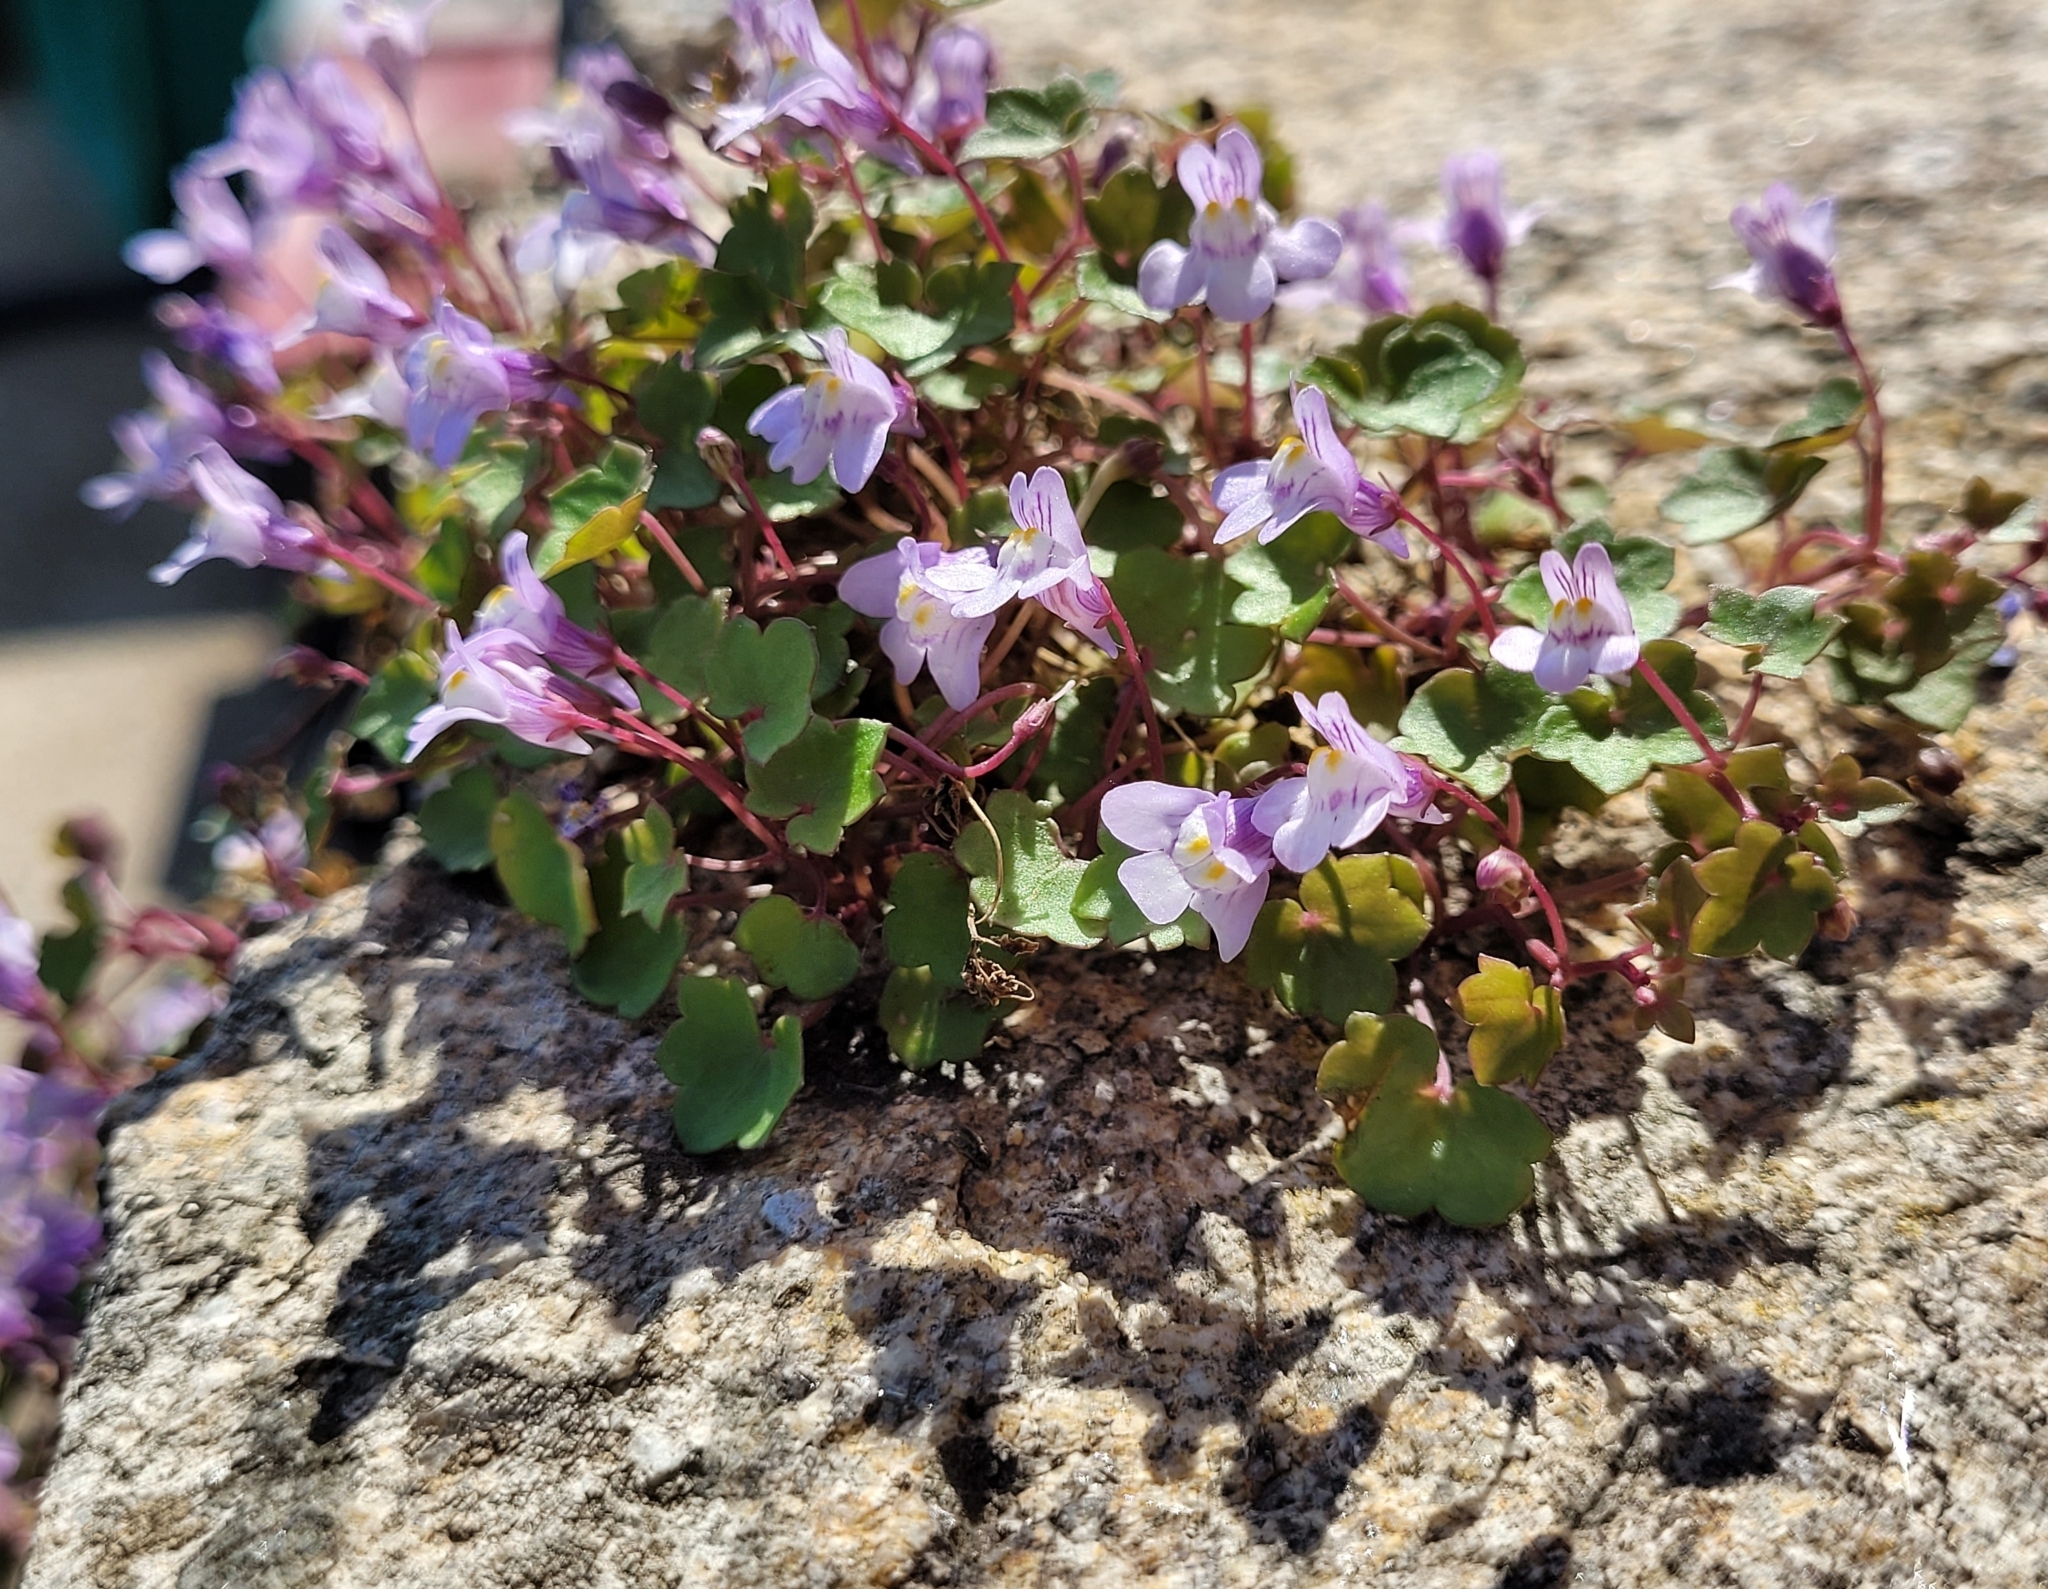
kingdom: Plantae
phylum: Tracheophyta
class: Magnoliopsida
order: Lamiales
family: Plantaginaceae
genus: Cymbalaria
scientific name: Cymbalaria muralis
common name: Ivy-leaved toadflax
